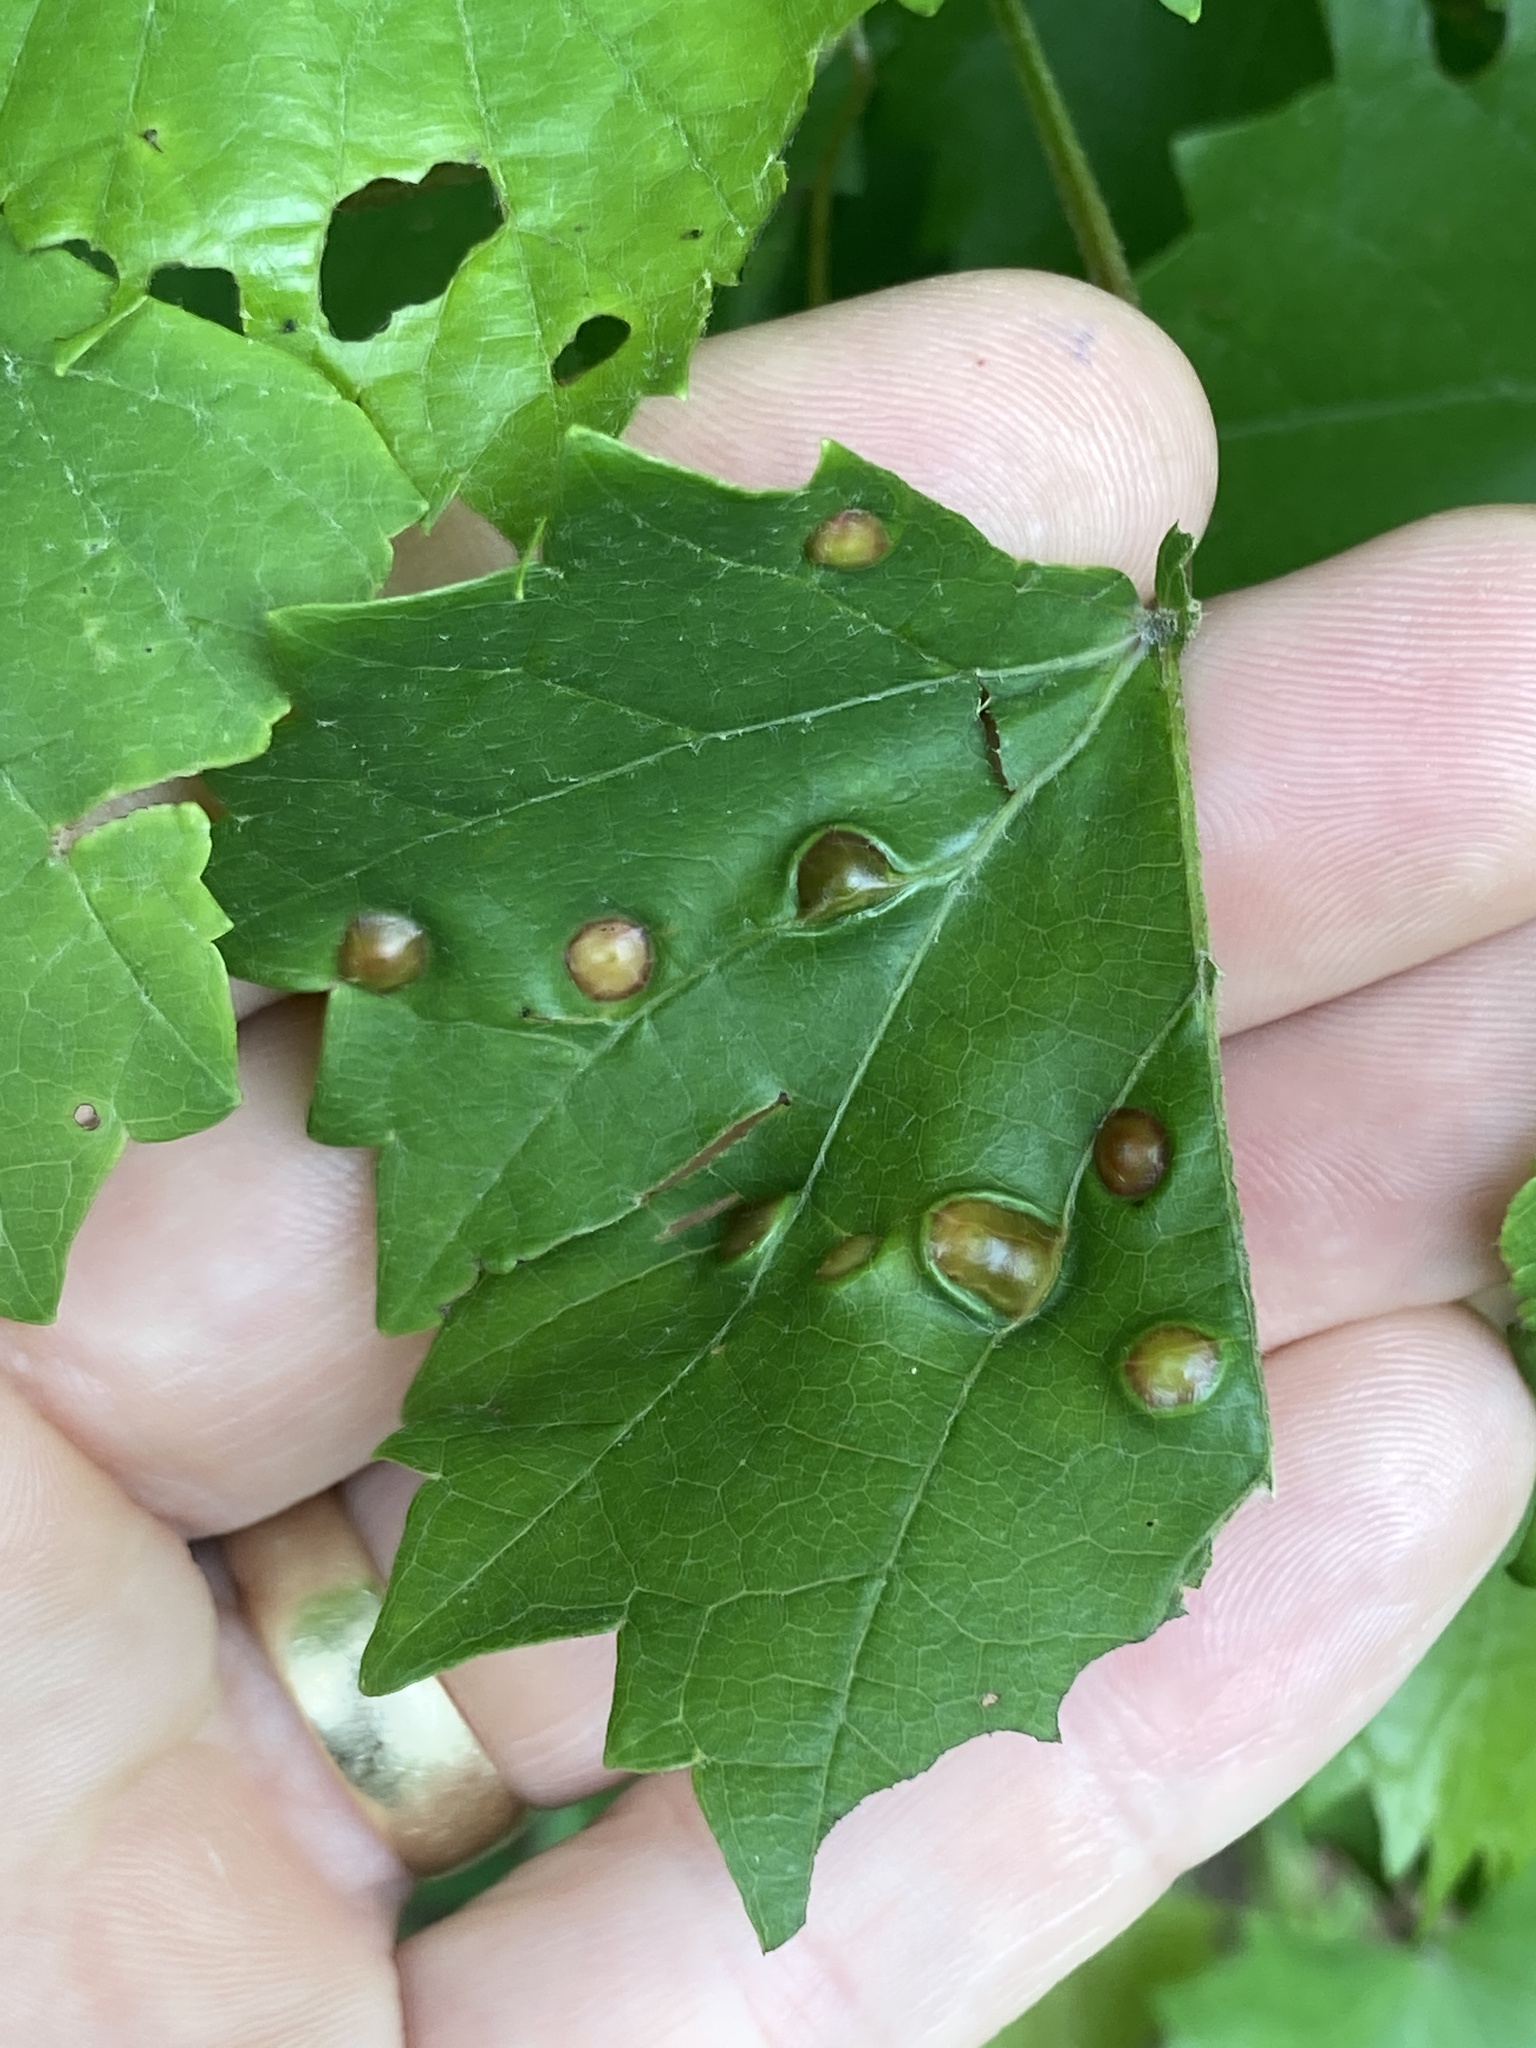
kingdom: Animalia
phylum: Arthropoda
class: Insecta
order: Diptera
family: Cecidomyiidae
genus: Vitisiella
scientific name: Vitisiella brevicauda
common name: Grape tumid gallmaker midge
